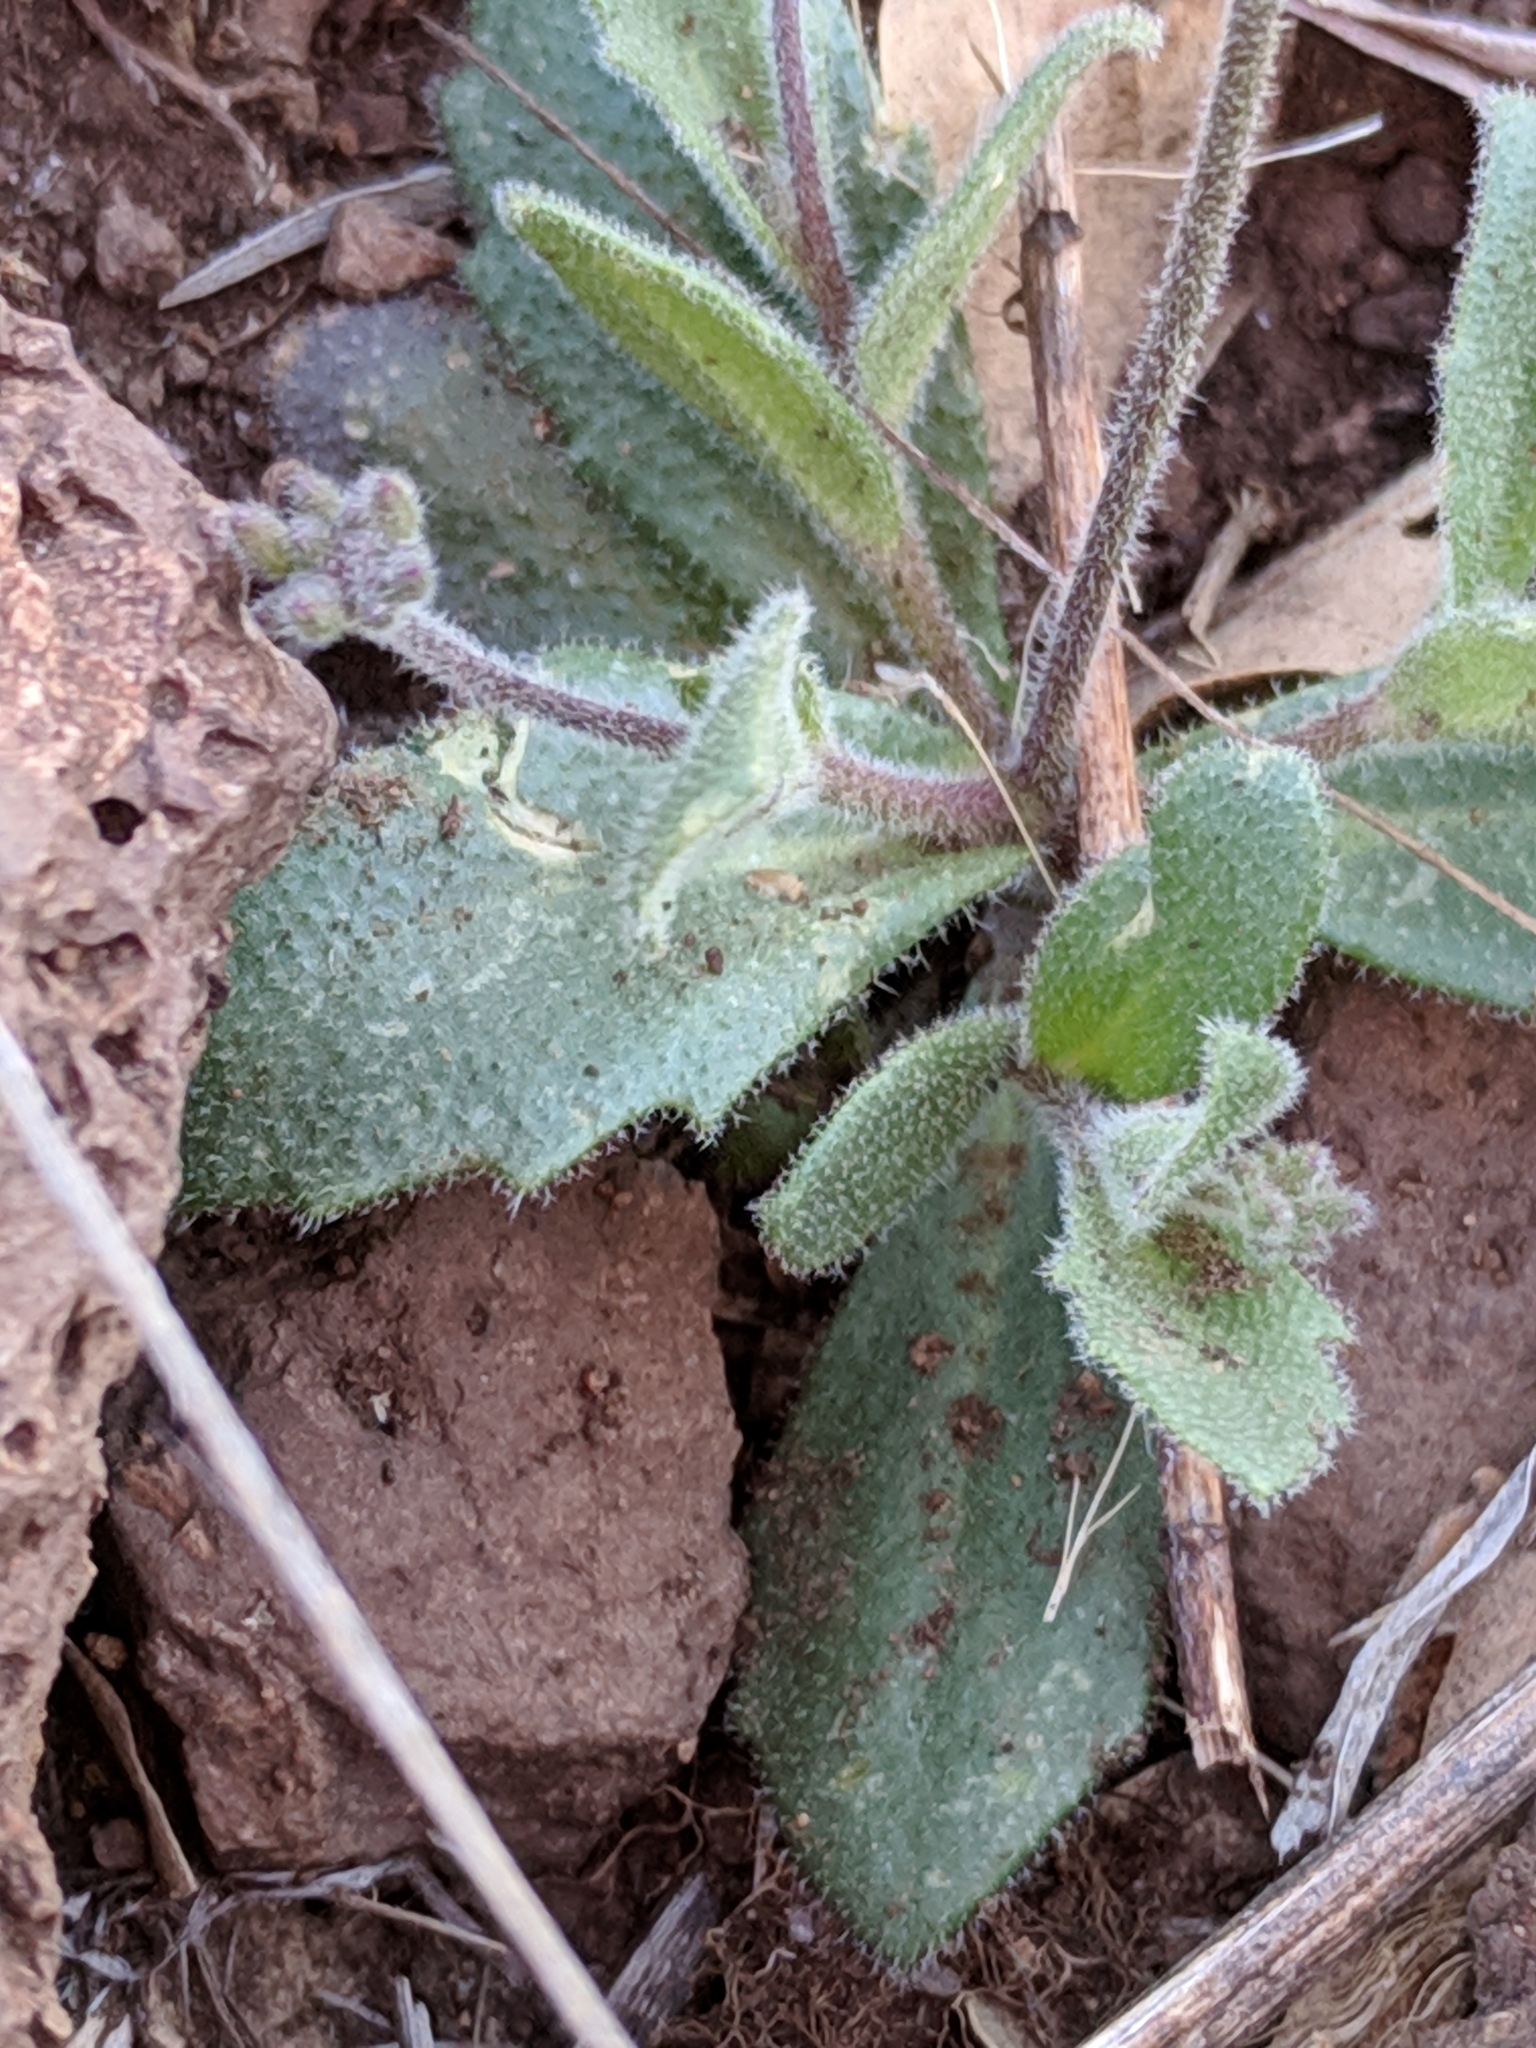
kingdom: Plantae
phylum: Tracheophyta
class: Magnoliopsida
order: Brassicales
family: Brassicaceae
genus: Tomostima
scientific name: Tomostima cuneifolia
